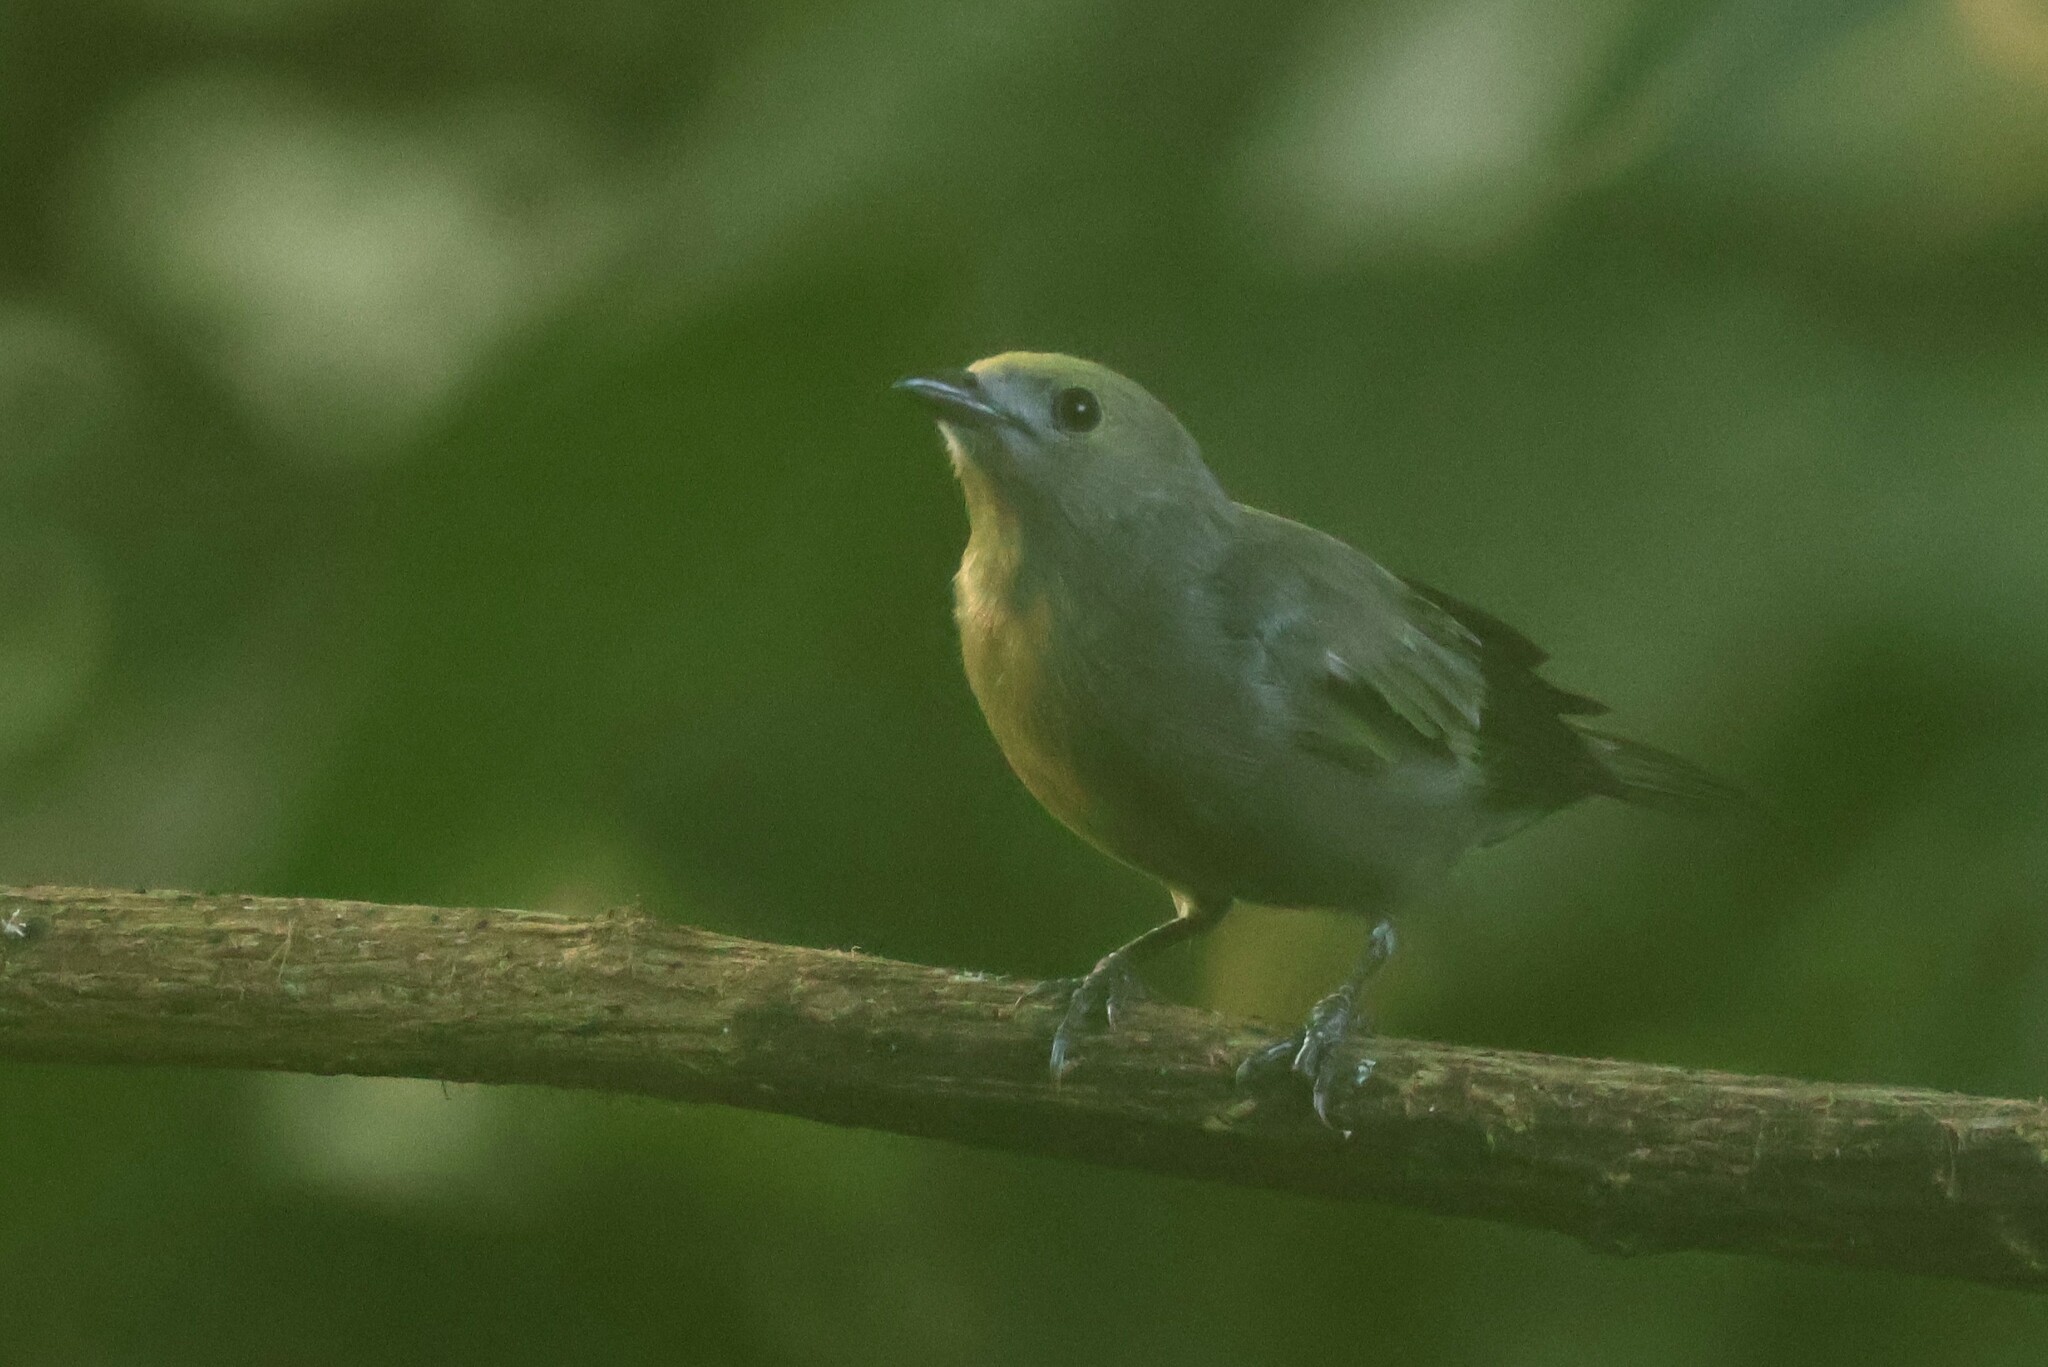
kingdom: Animalia
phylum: Chordata
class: Aves
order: Passeriformes
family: Thraupidae
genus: Thraupis
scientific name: Thraupis palmarum
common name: Palm tanager
